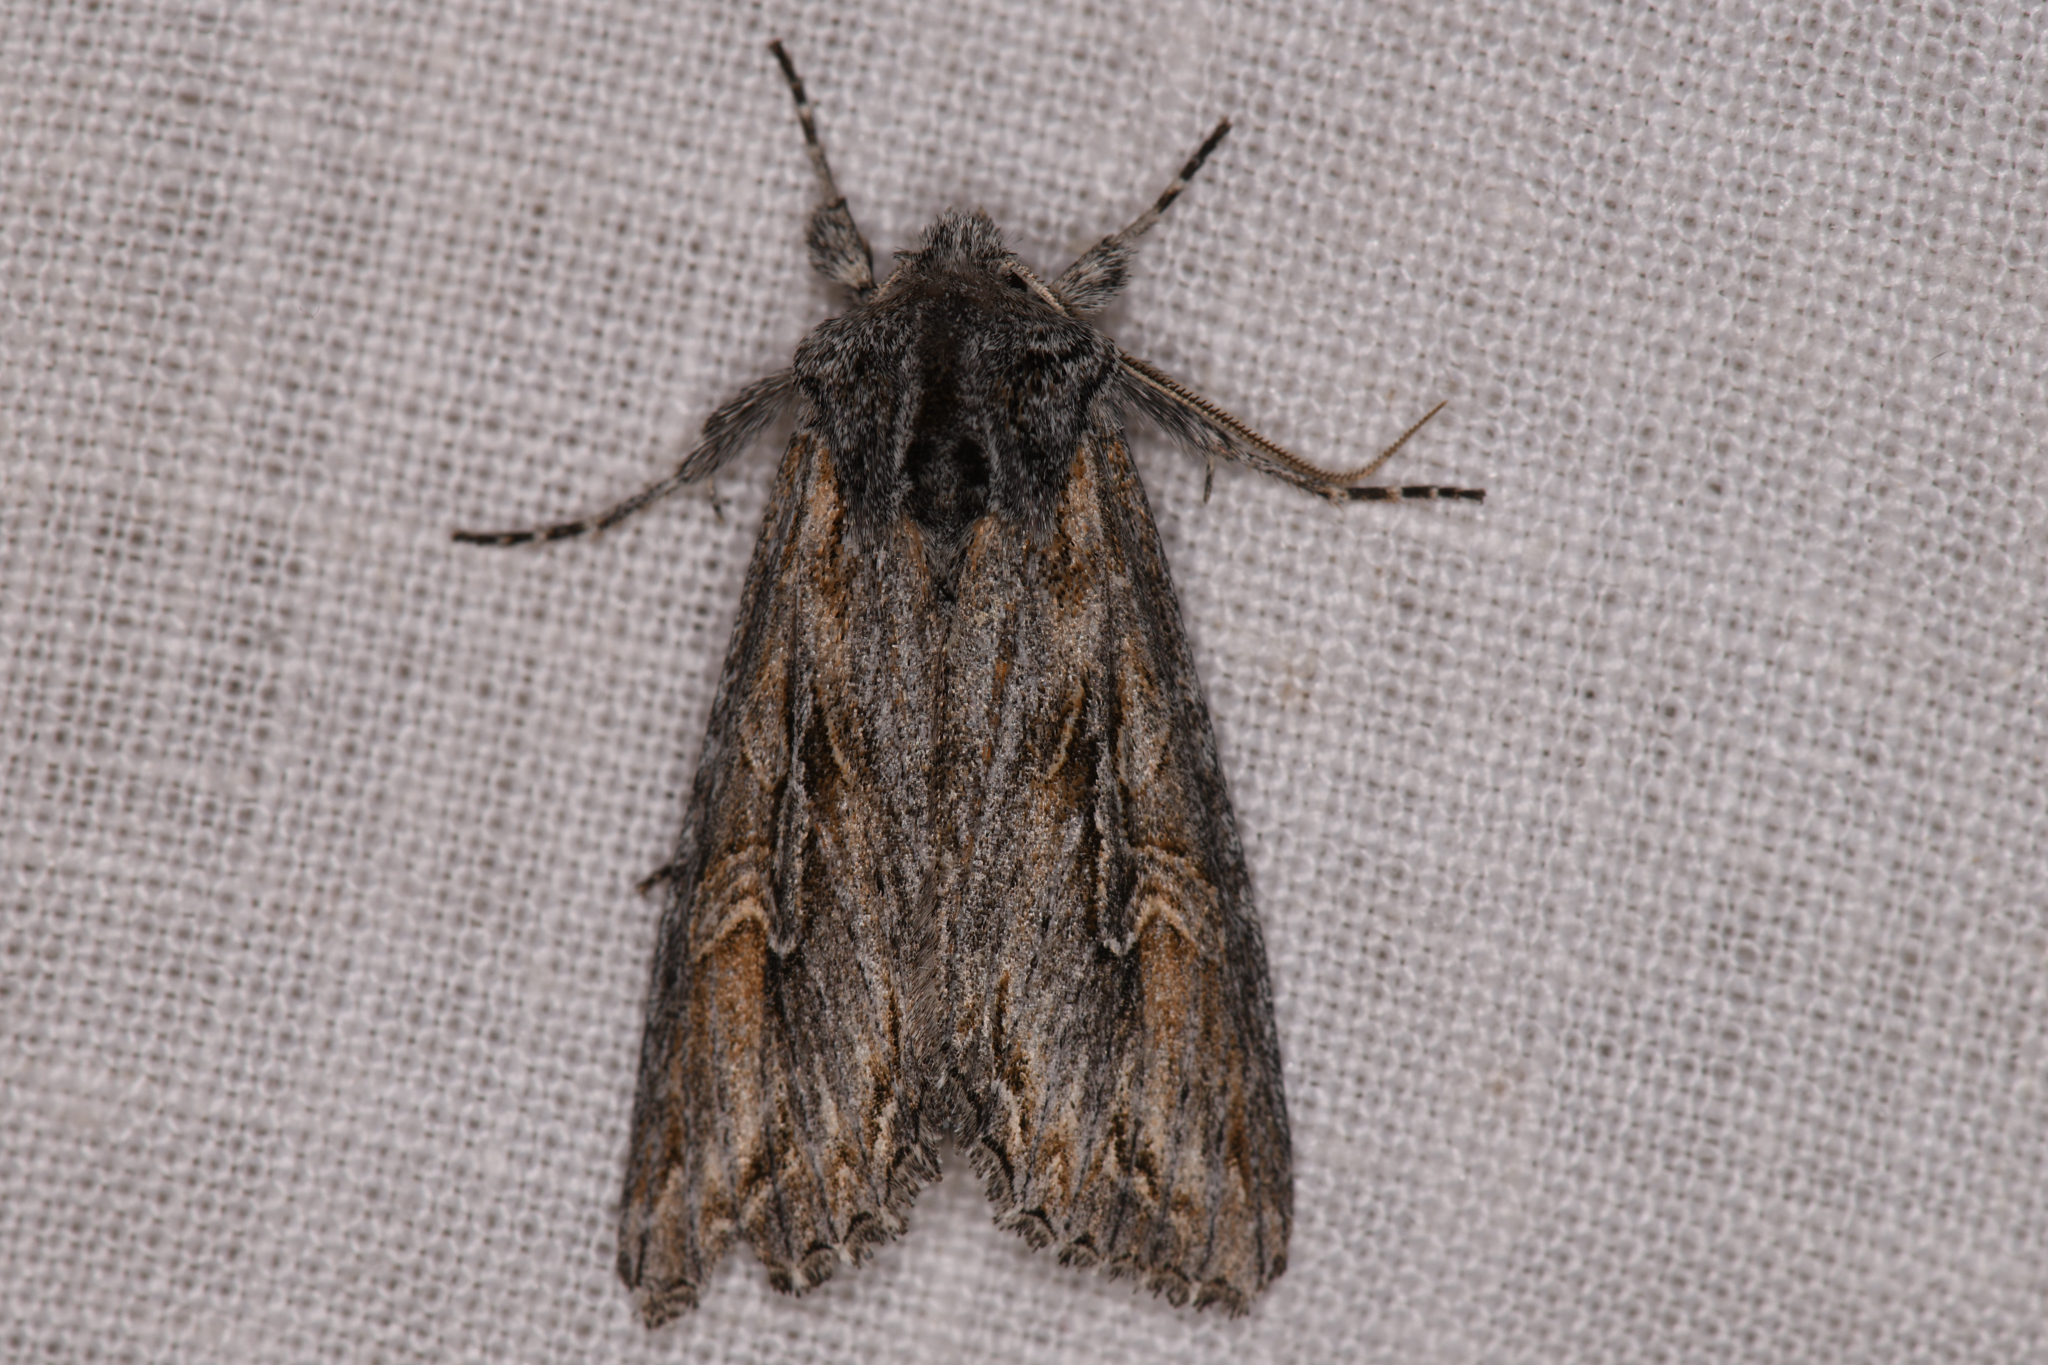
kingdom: Animalia
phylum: Arthropoda
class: Insecta
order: Lepidoptera
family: Noctuidae
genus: Polia
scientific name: Polia nugatis
